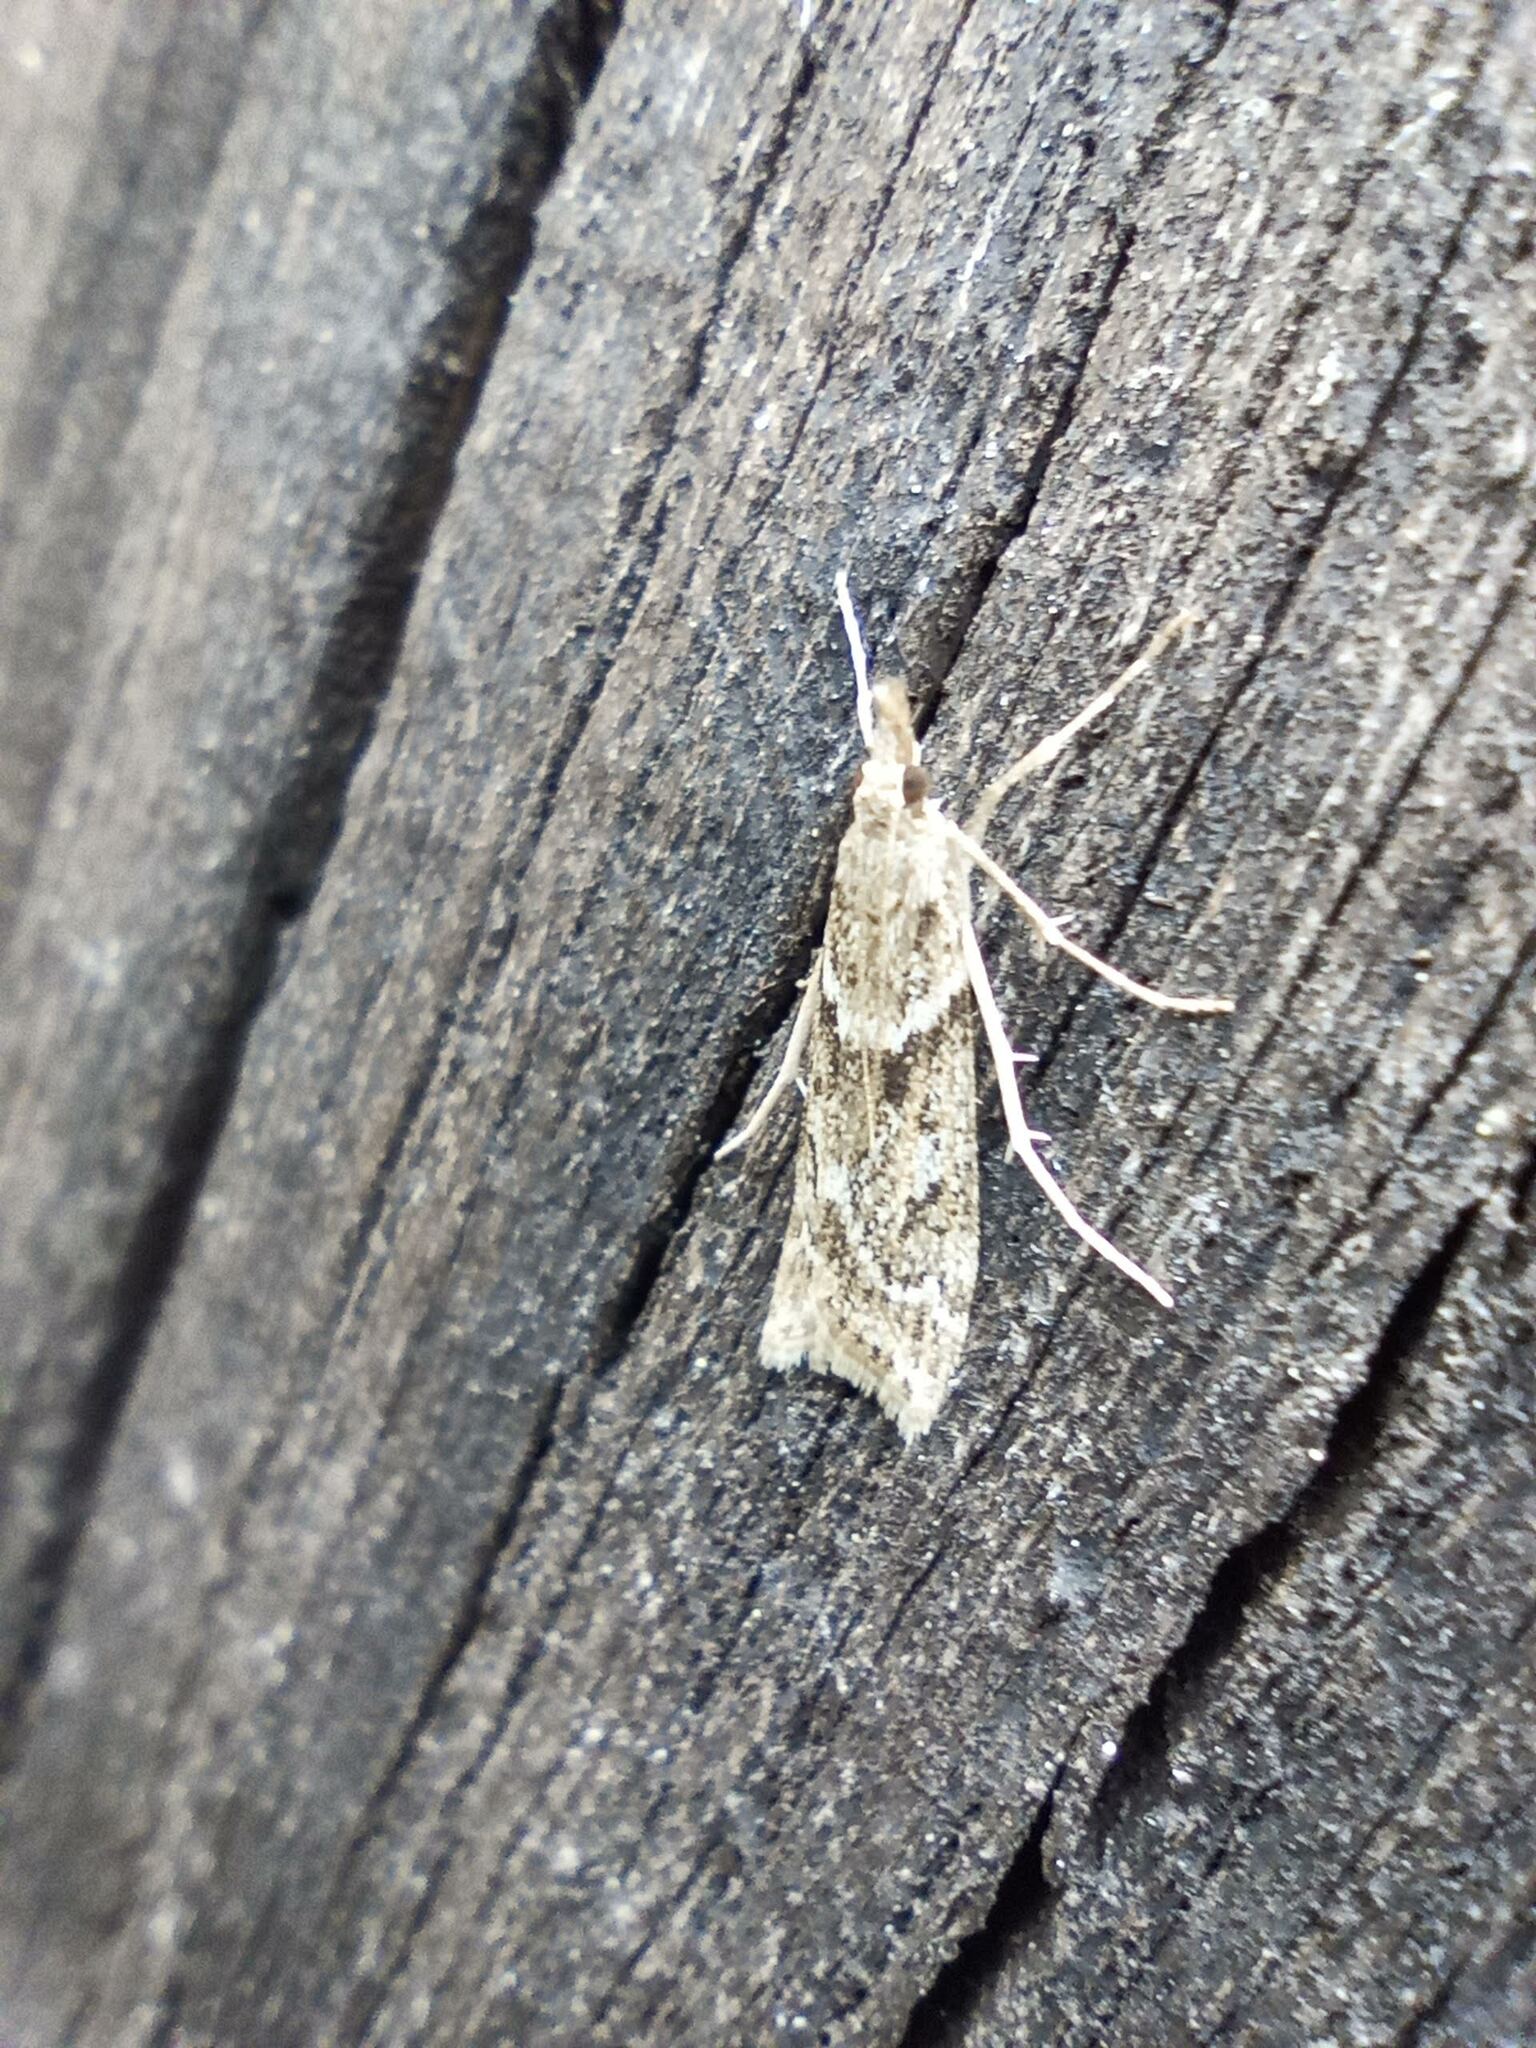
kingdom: Animalia
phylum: Arthropoda
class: Insecta
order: Lepidoptera
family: Crambidae
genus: Eudonia
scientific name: Eudonia angustea
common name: Narrow-winged grey
